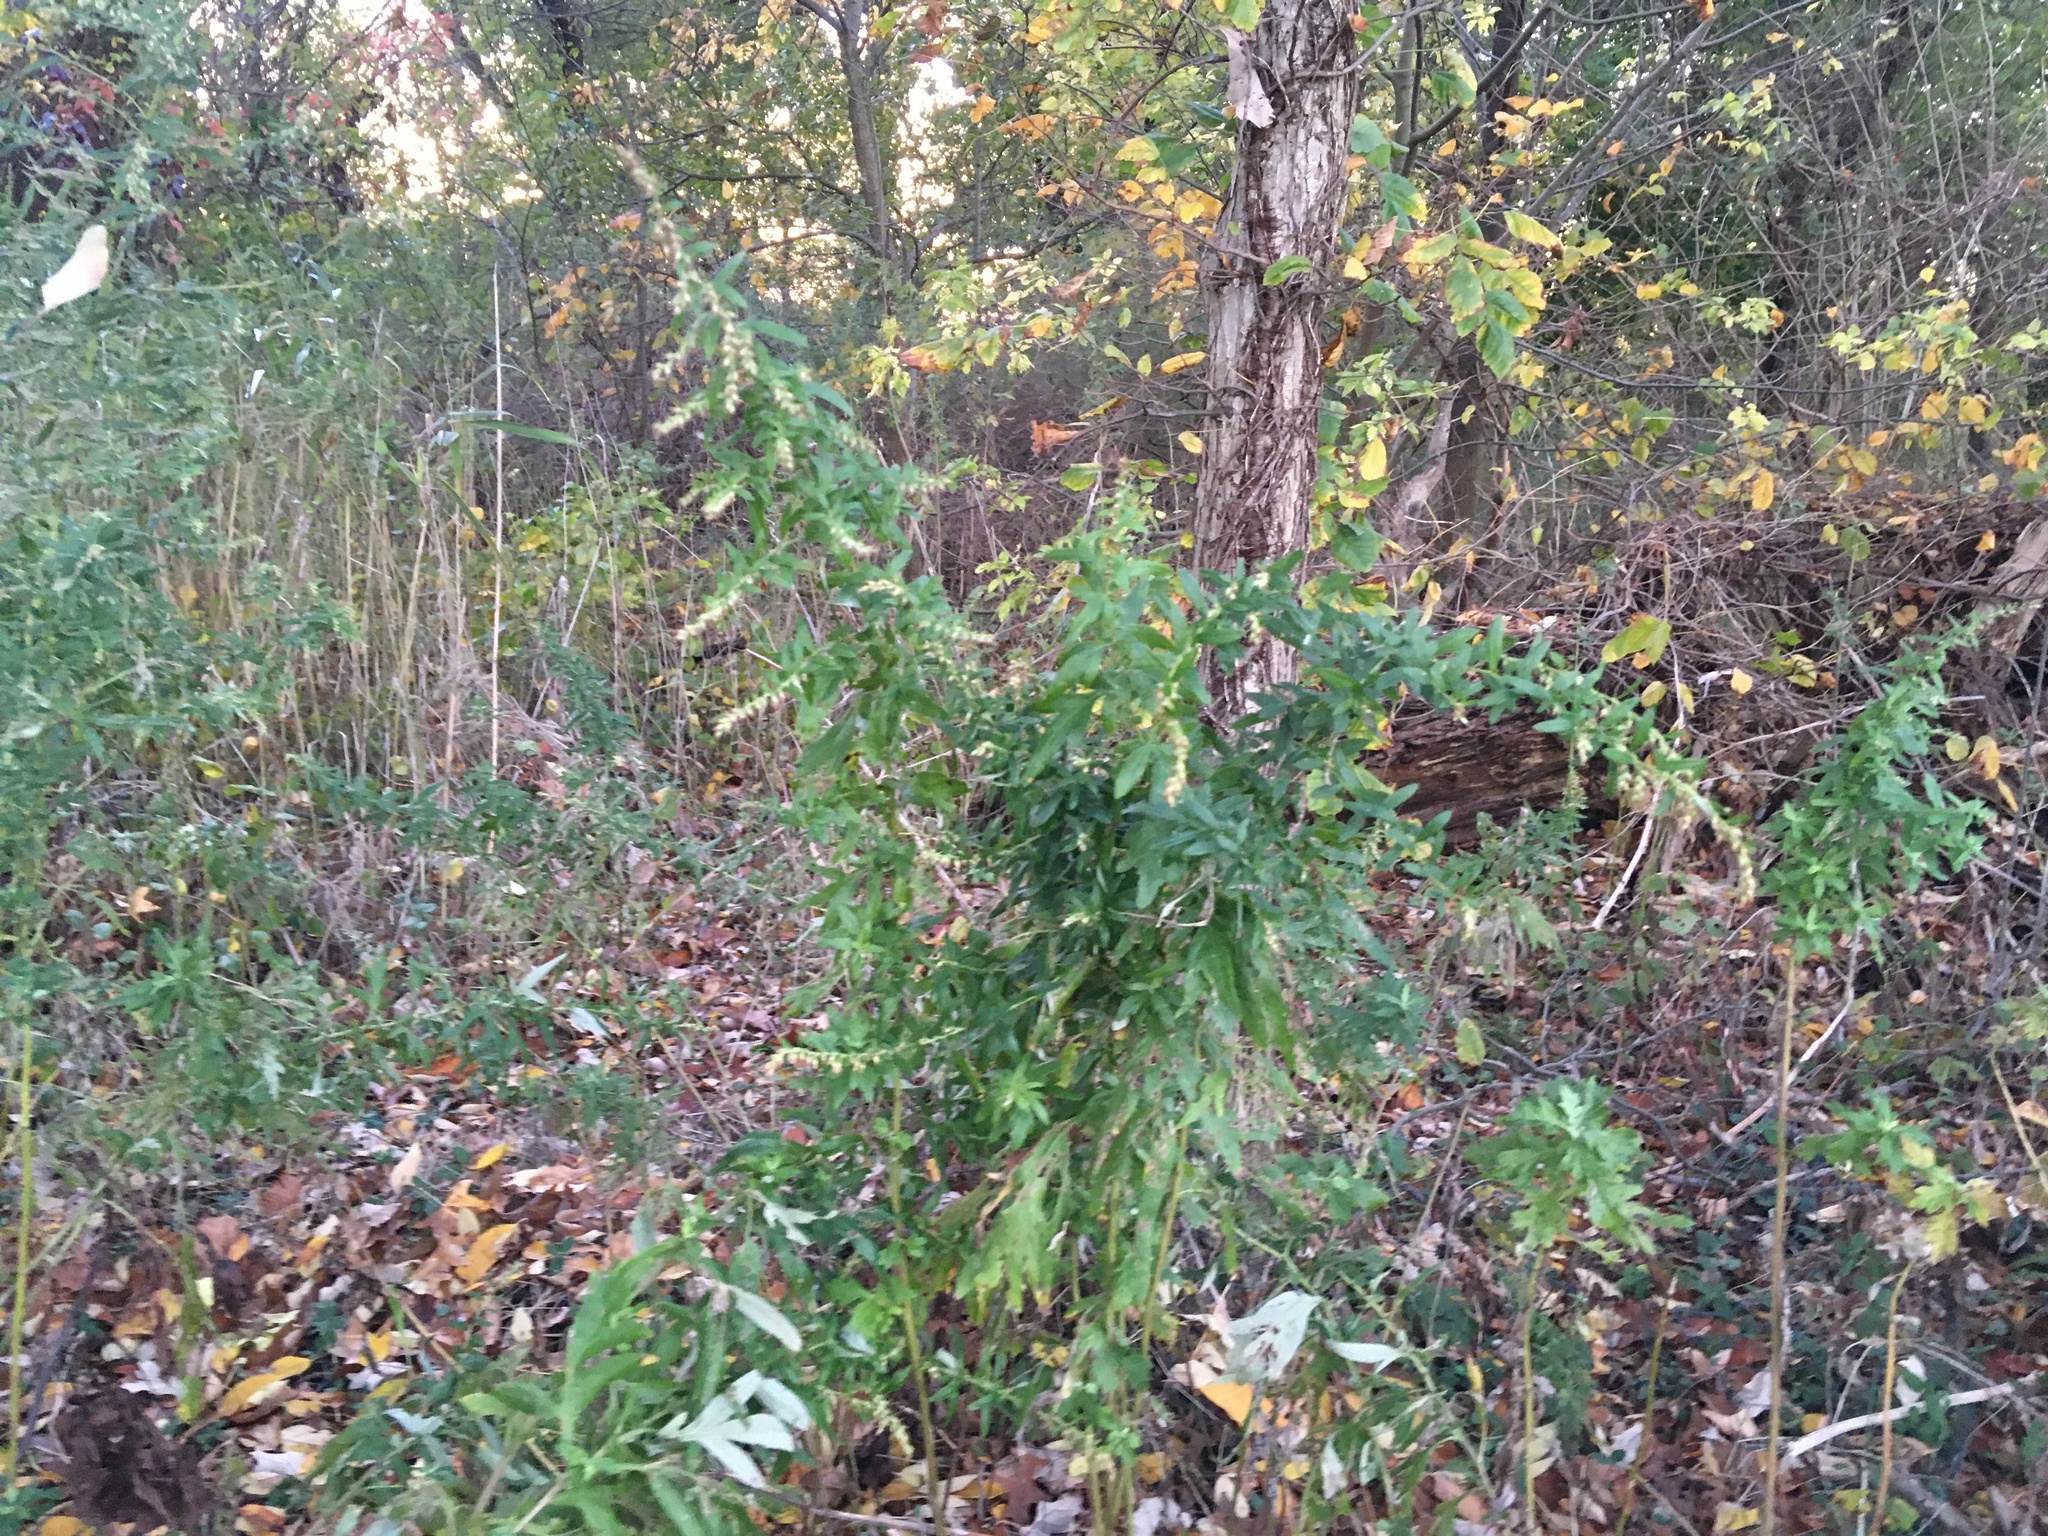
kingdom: Plantae
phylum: Tracheophyta
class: Magnoliopsida
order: Asterales
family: Asteraceae
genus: Artemisia
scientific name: Artemisia vulgaris
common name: Mugwort
